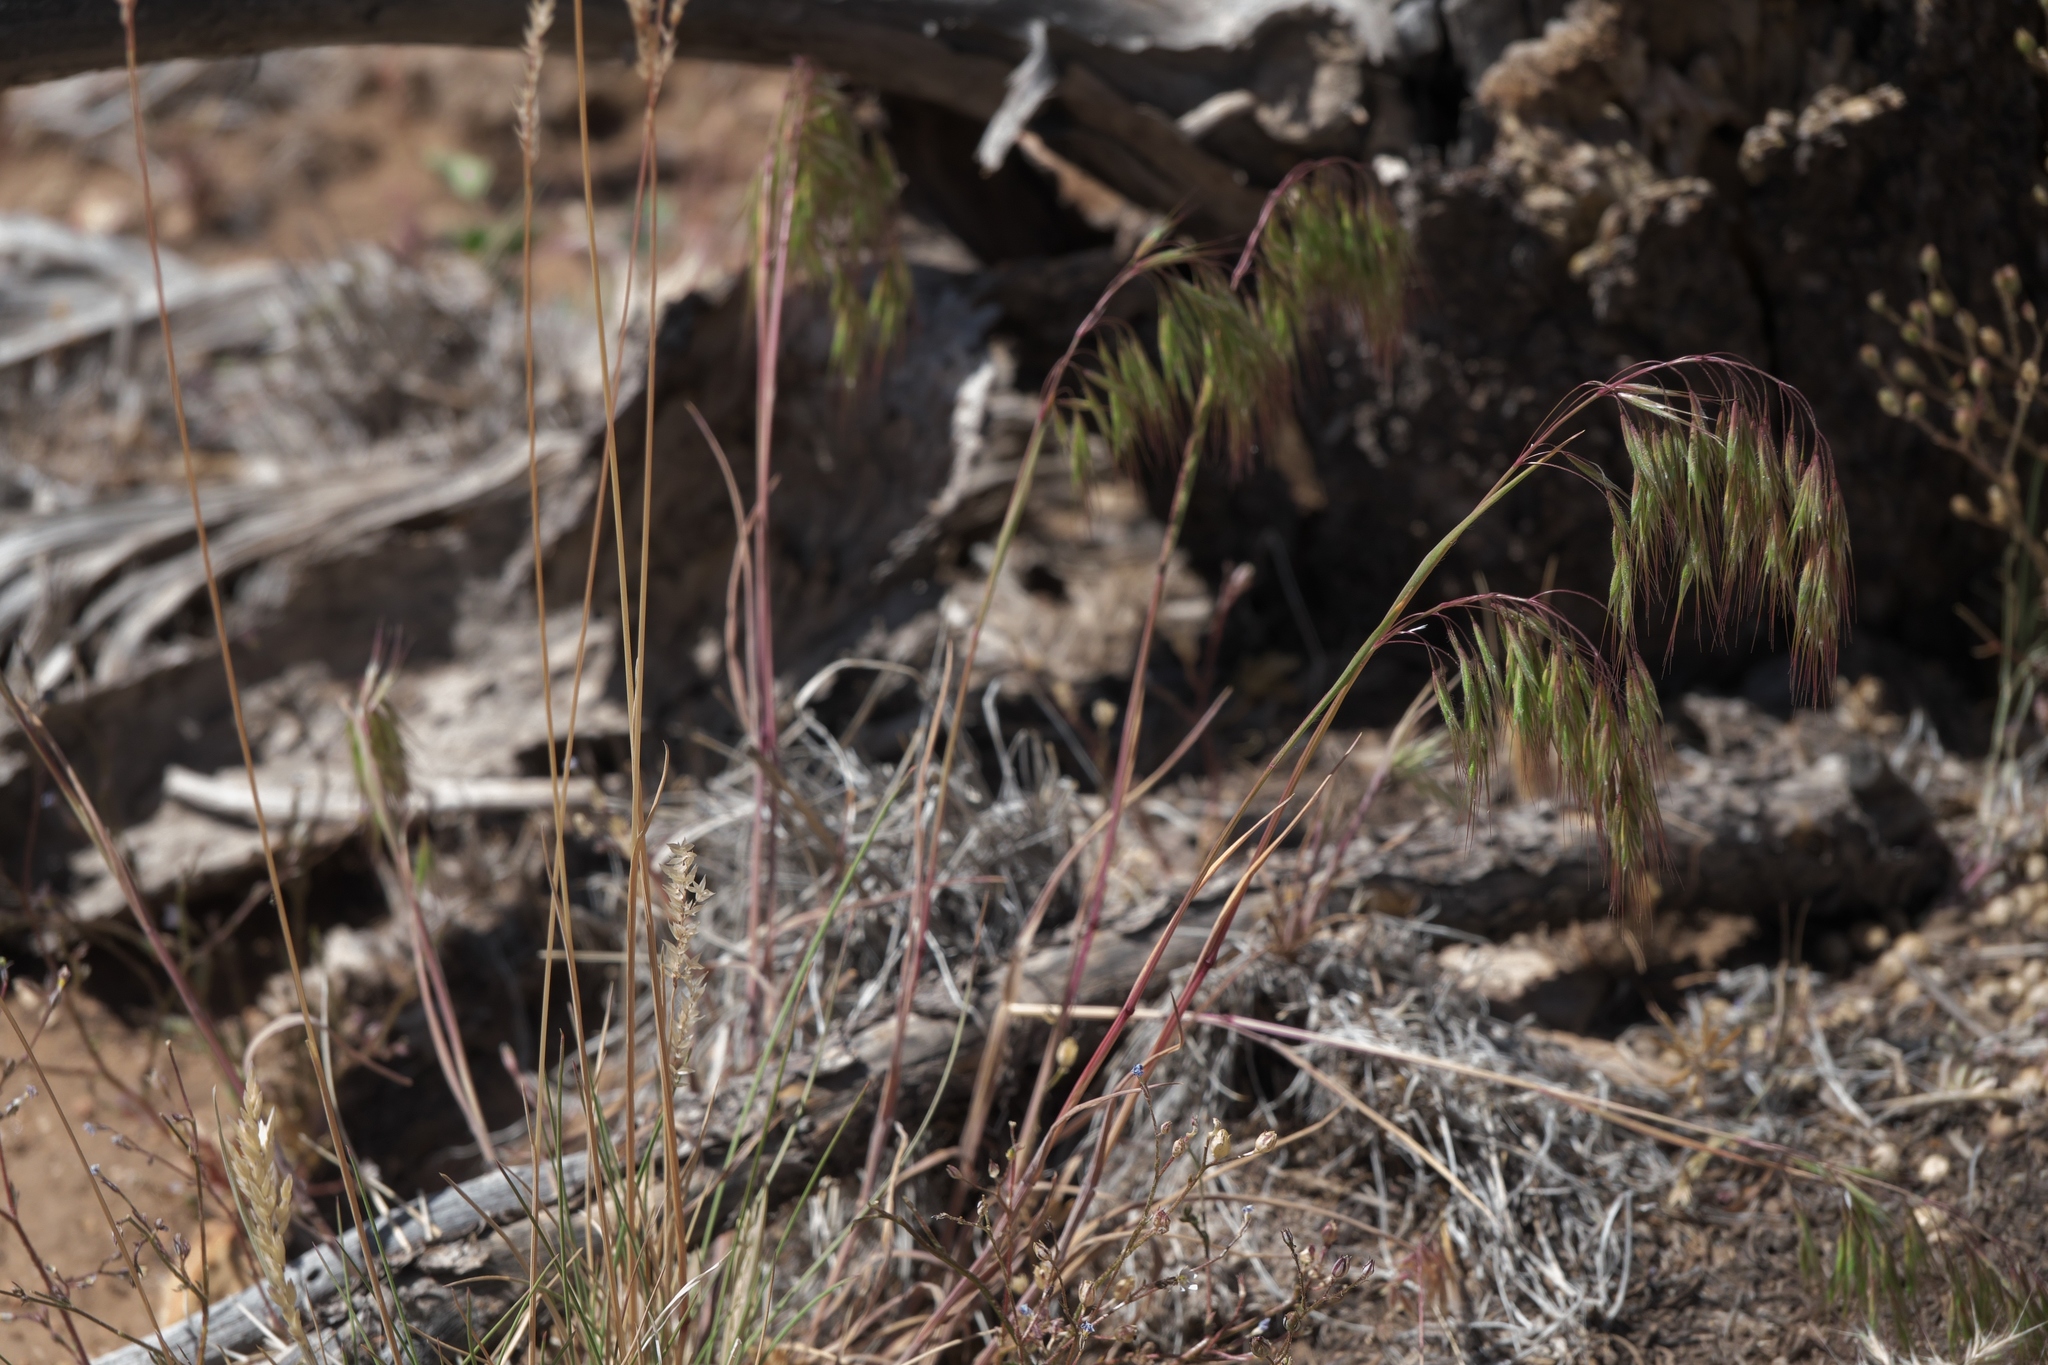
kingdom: Plantae
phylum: Tracheophyta
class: Liliopsida
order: Poales
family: Poaceae
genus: Bromus
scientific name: Bromus tectorum
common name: Cheatgrass
